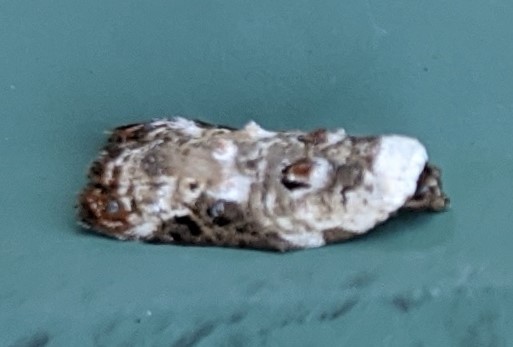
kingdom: Animalia
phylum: Arthropoda
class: Insecta
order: Lepidoptera
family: Tortricidae
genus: Acleris
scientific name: Acleris nivisellana
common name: Snowy-shouldered acleris moth
